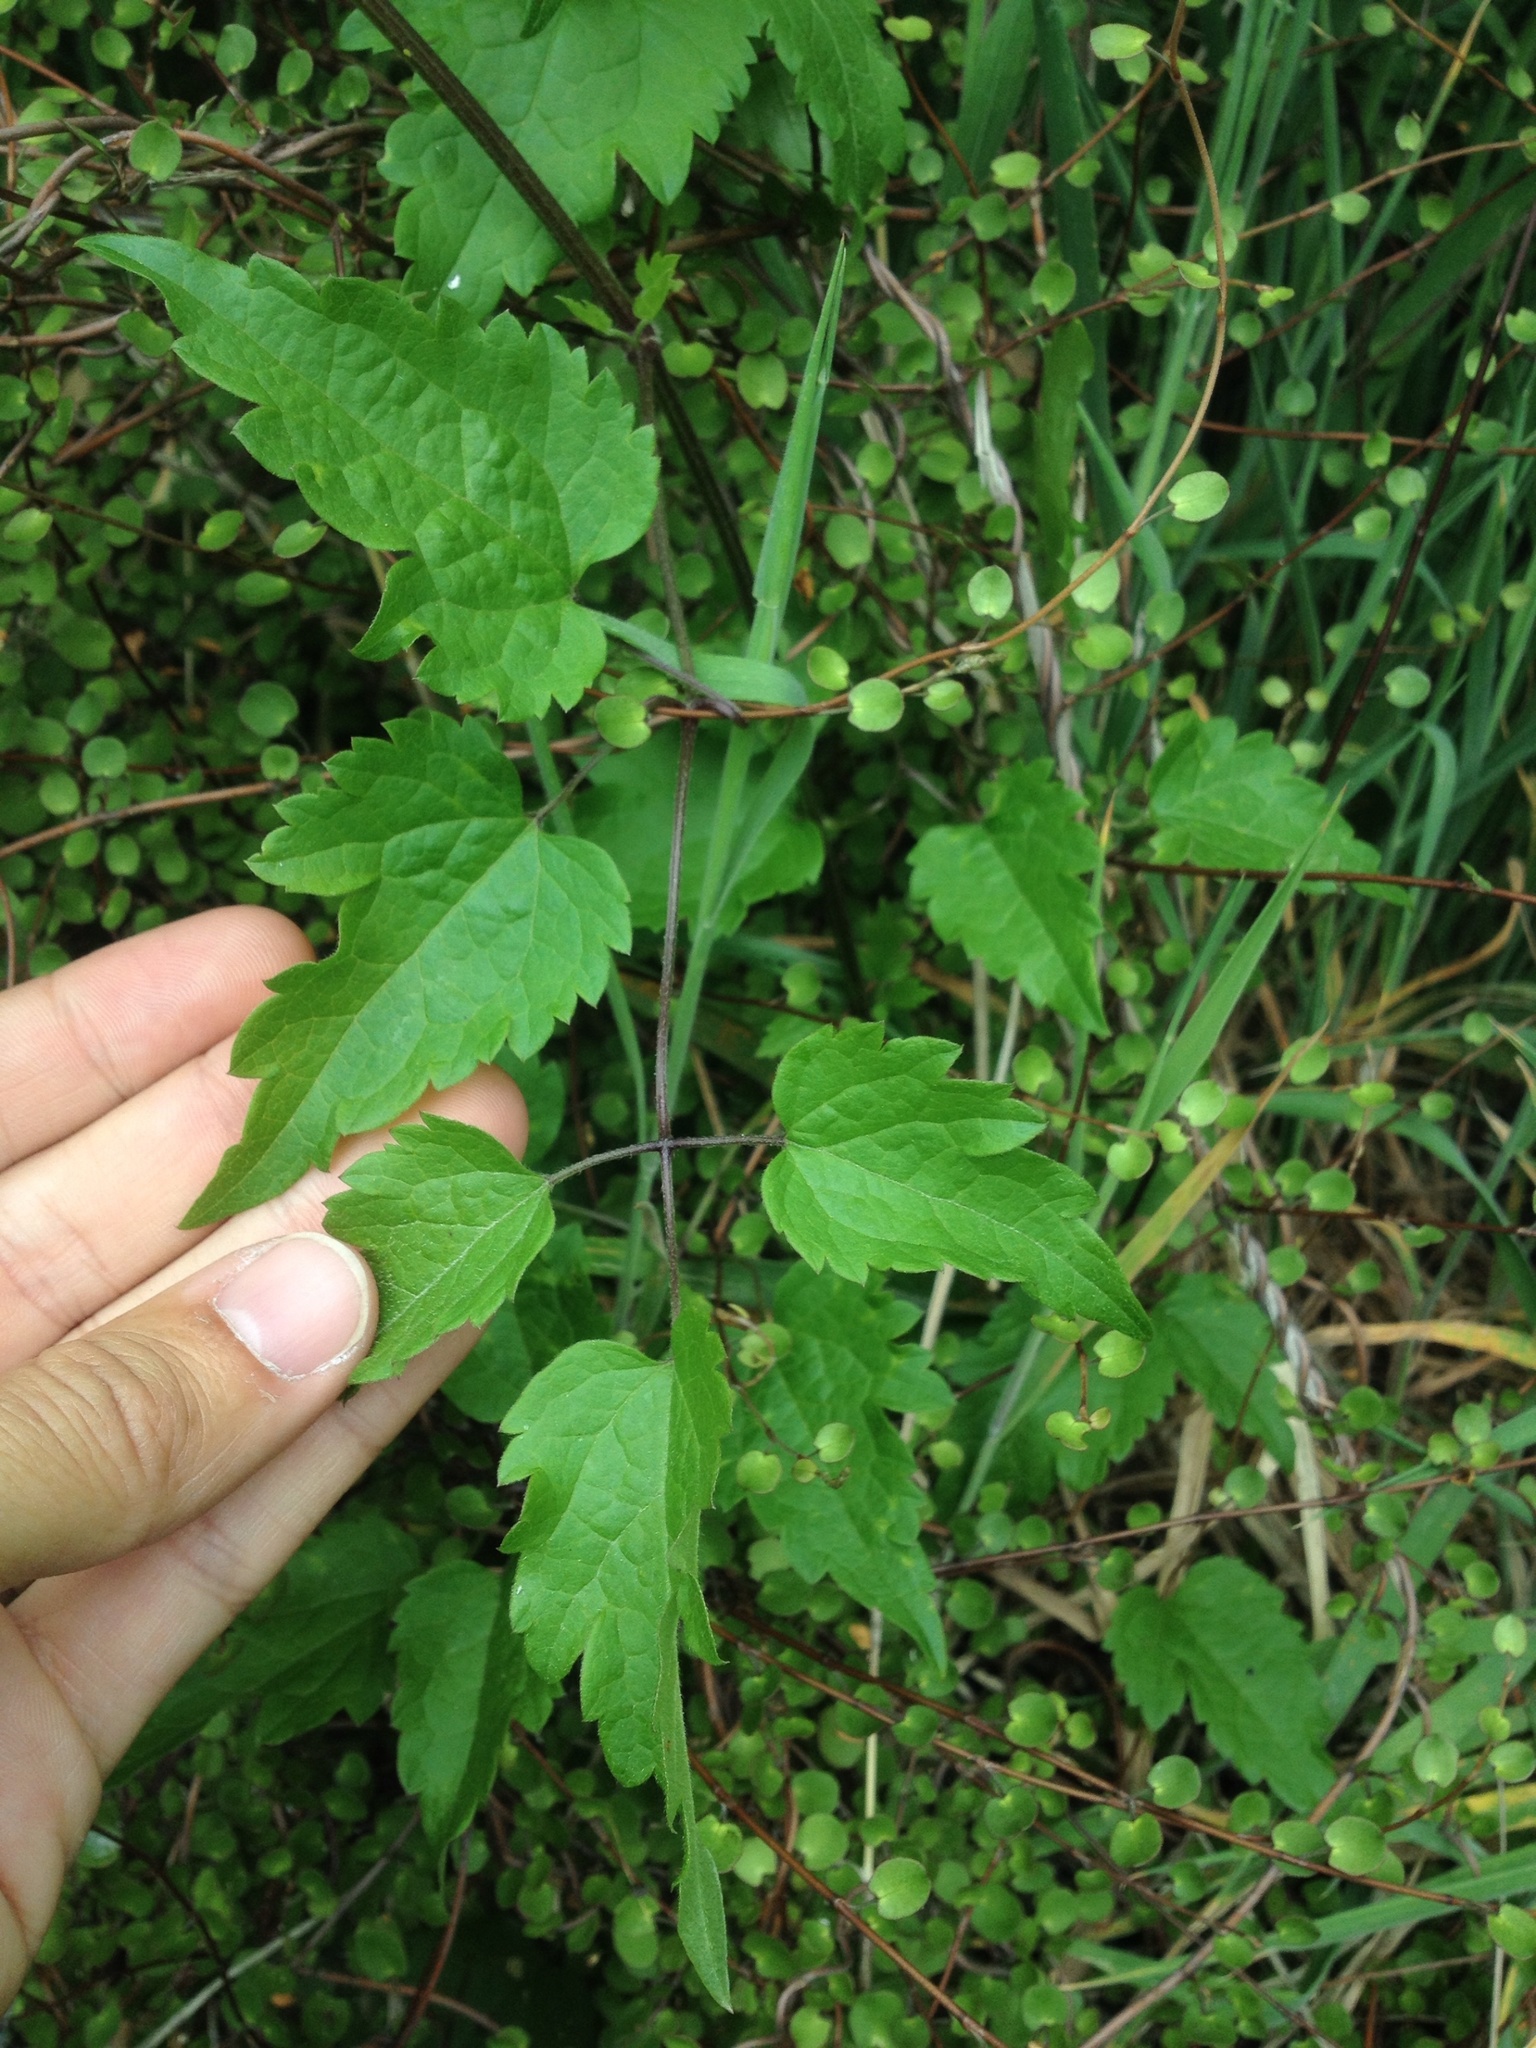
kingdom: Plantae
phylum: Tracheophyta
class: Magnoliopsida
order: Ranunculales
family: Ranunculaceae
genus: Clematis
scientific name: Clematis vitalba
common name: Evergreen clematis
